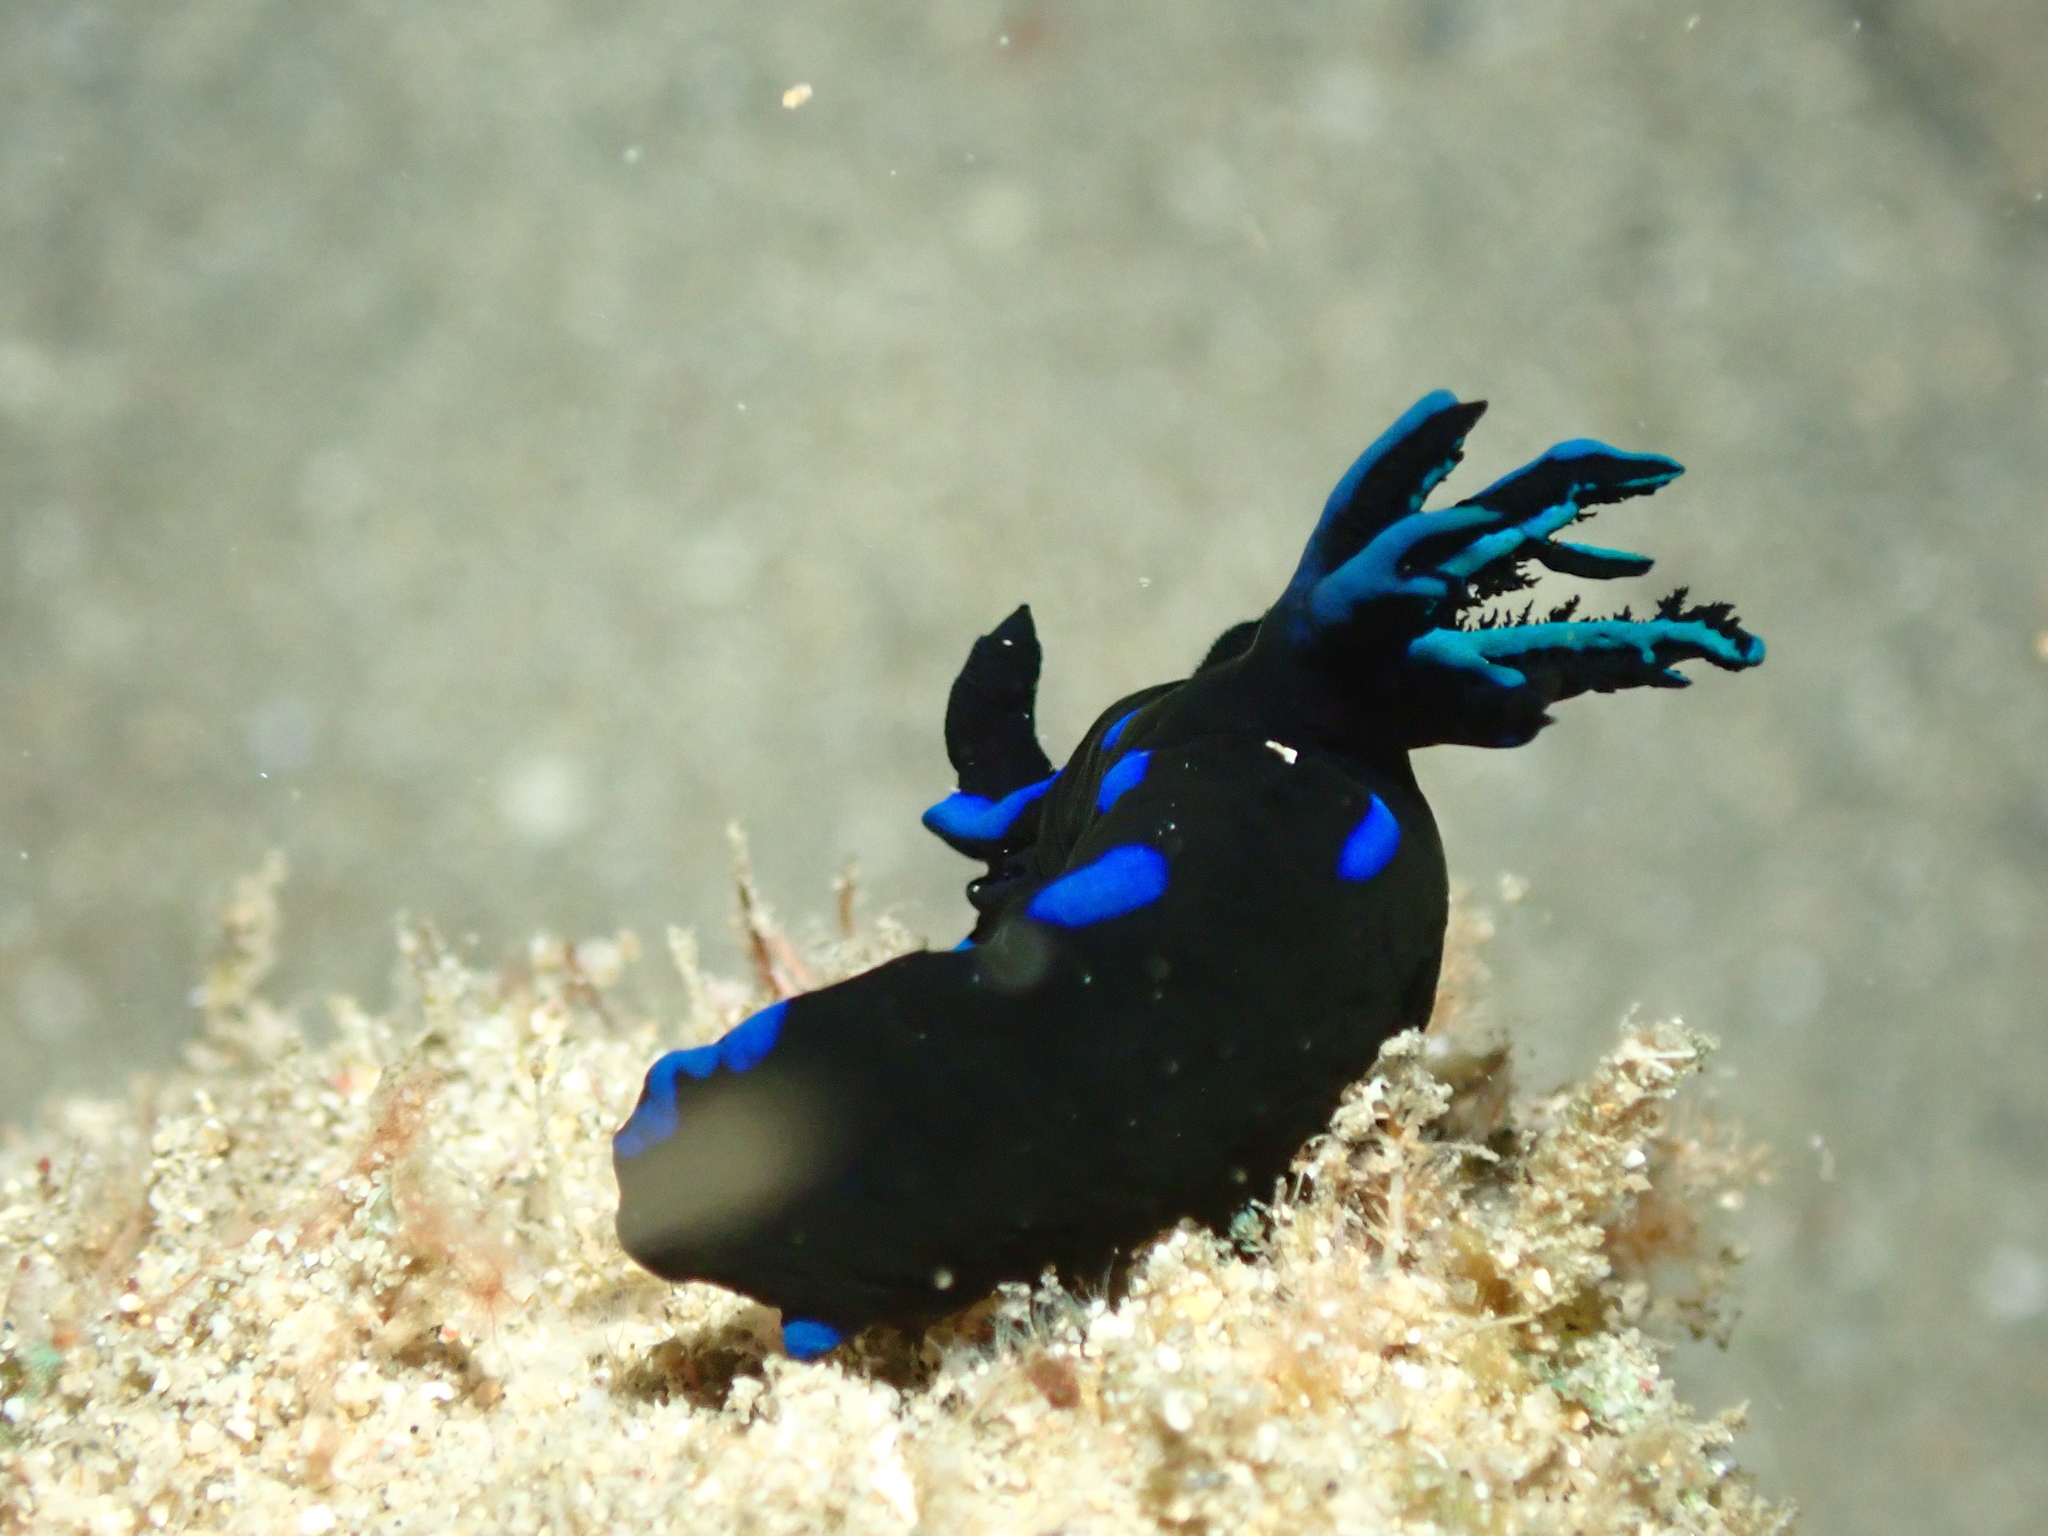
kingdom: Animalia
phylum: Mollusca
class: Gastropoda
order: Nudibranchia
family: Polyceridae
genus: Tambja
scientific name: Tambja morosa
